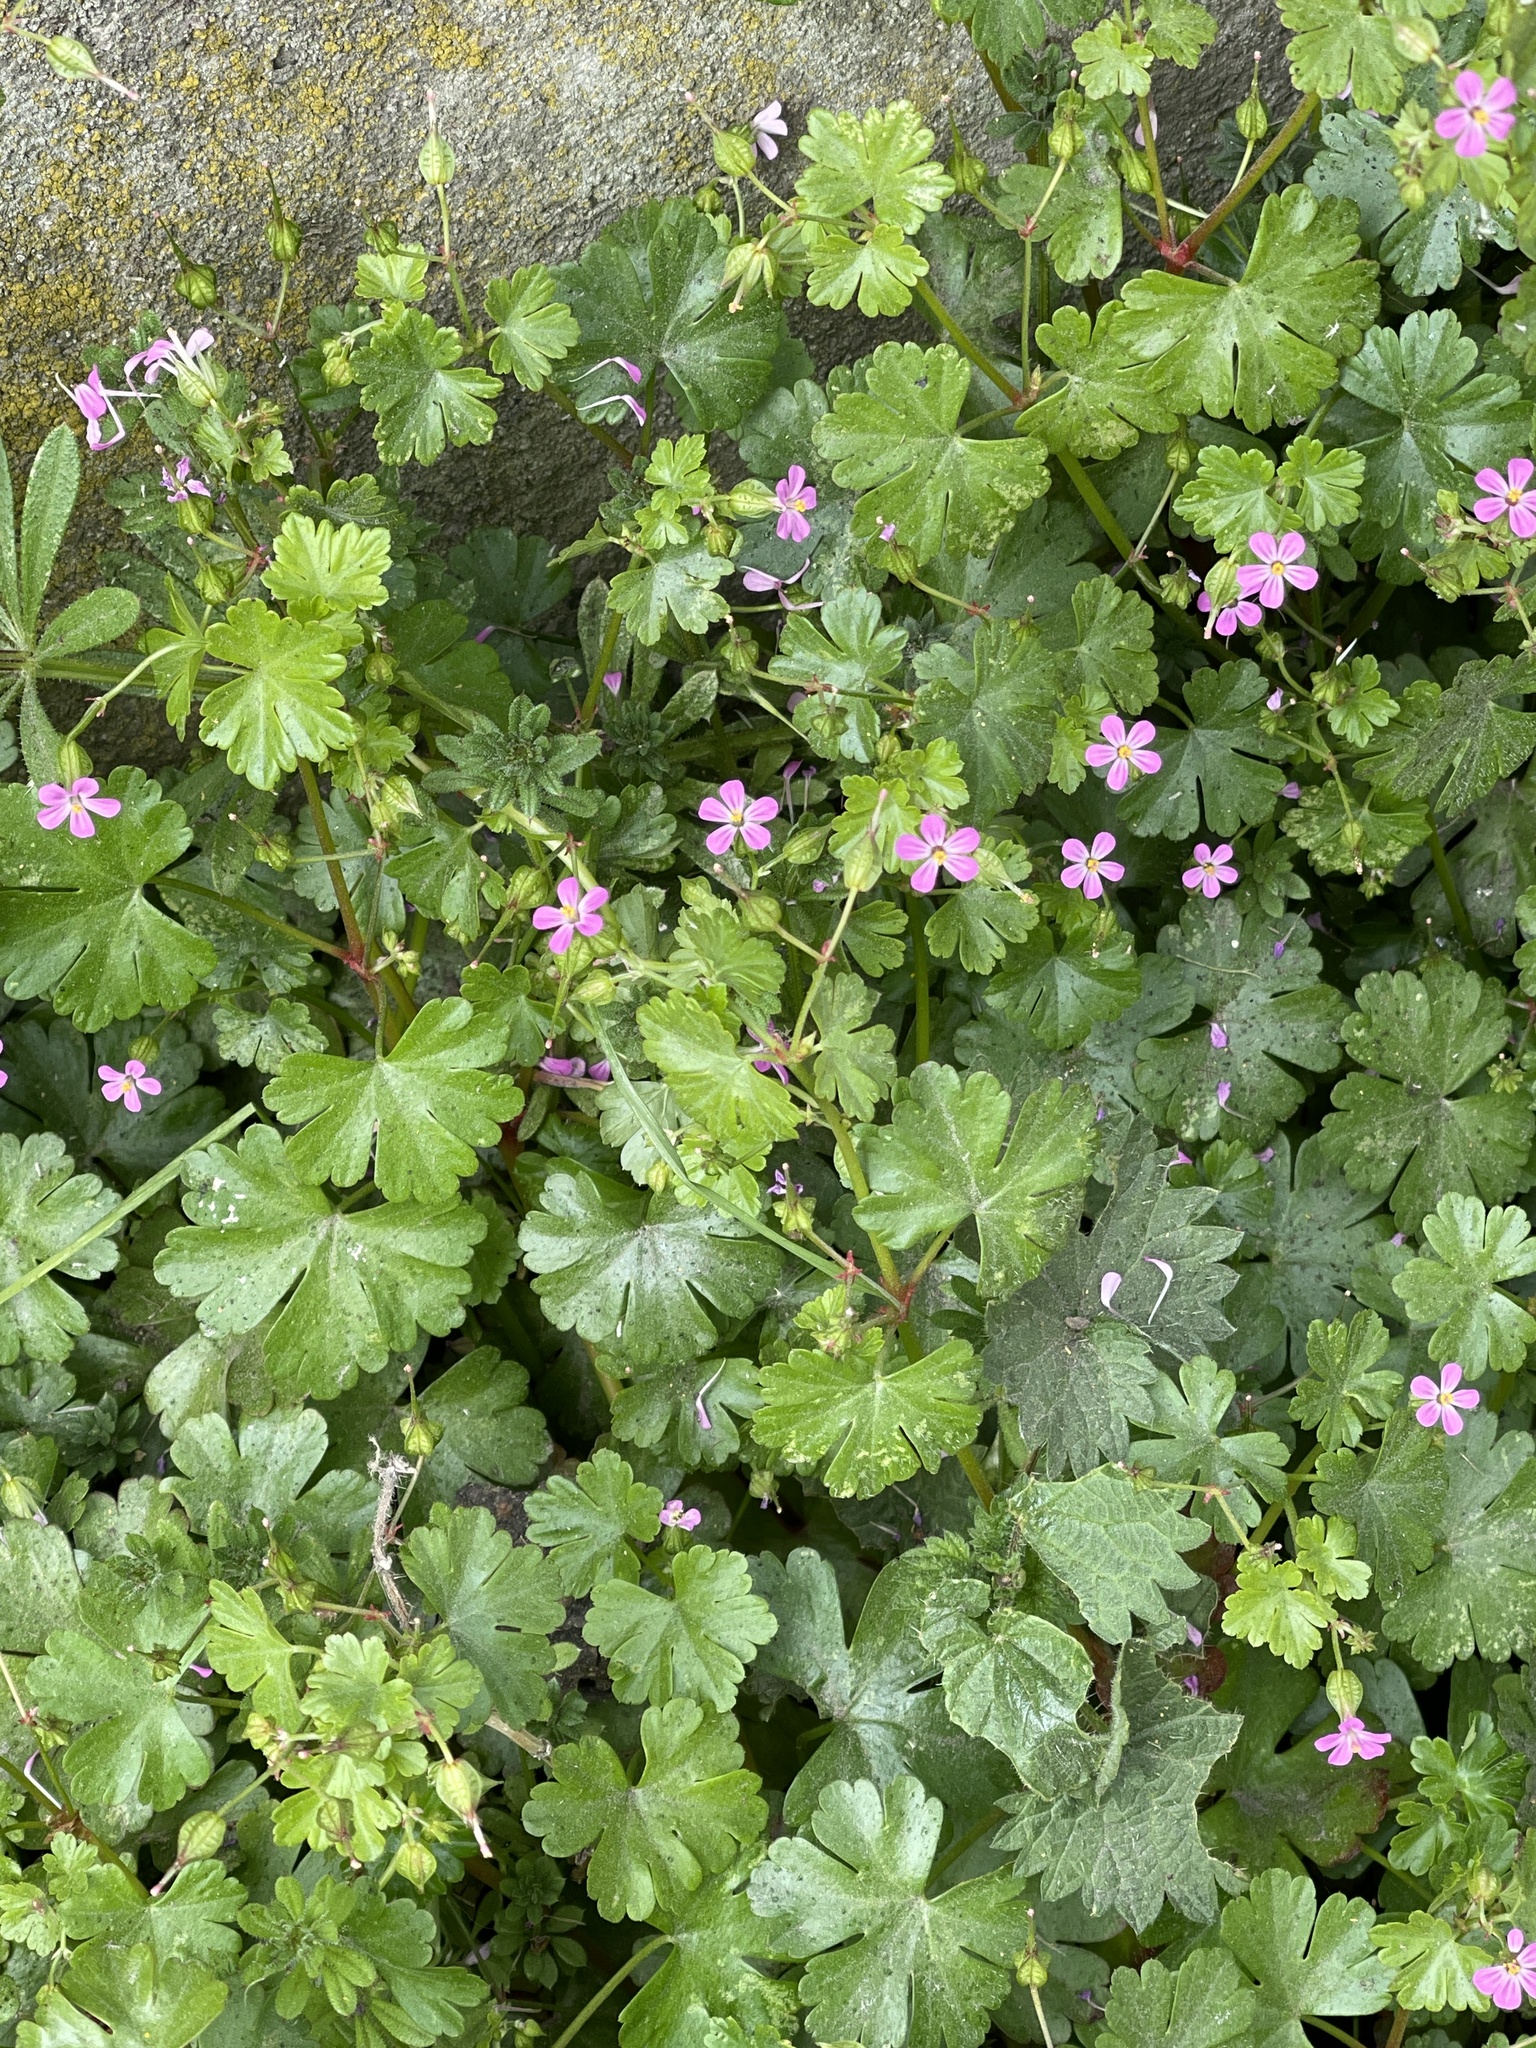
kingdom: Plantae
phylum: Tracheophyta
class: Magnoliopsida
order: Geraniales
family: Geraniaceae
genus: Geranium
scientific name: Geranium lucidum
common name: Shining crane's-bill
